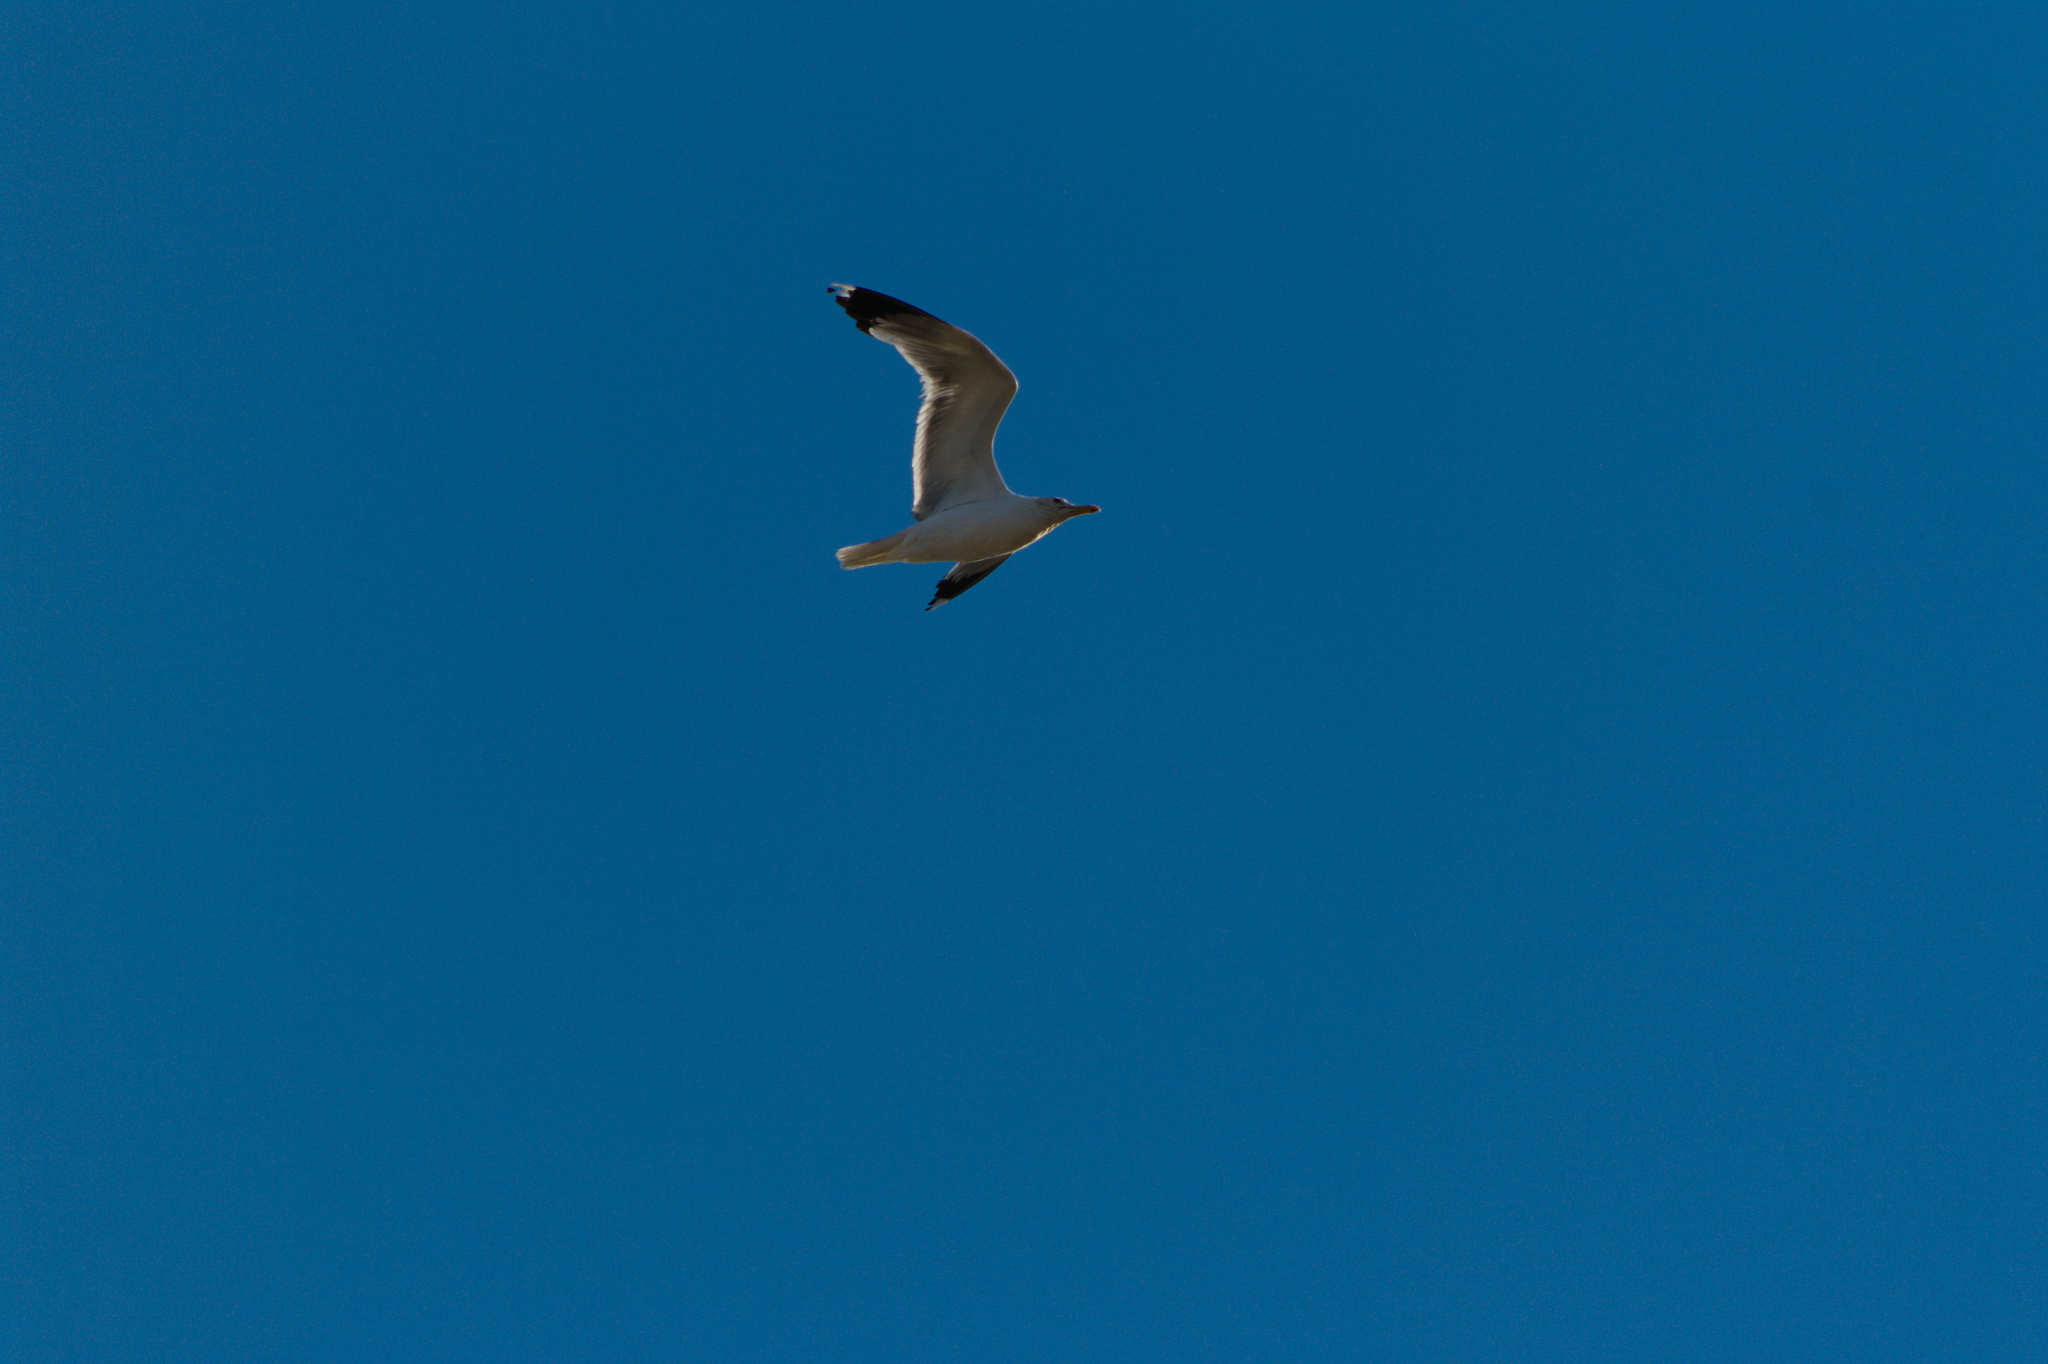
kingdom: Animalia
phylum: Chordata
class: Aves
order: Charadriiformes
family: Laridae
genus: Larus
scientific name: Larus californicus
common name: California gull
